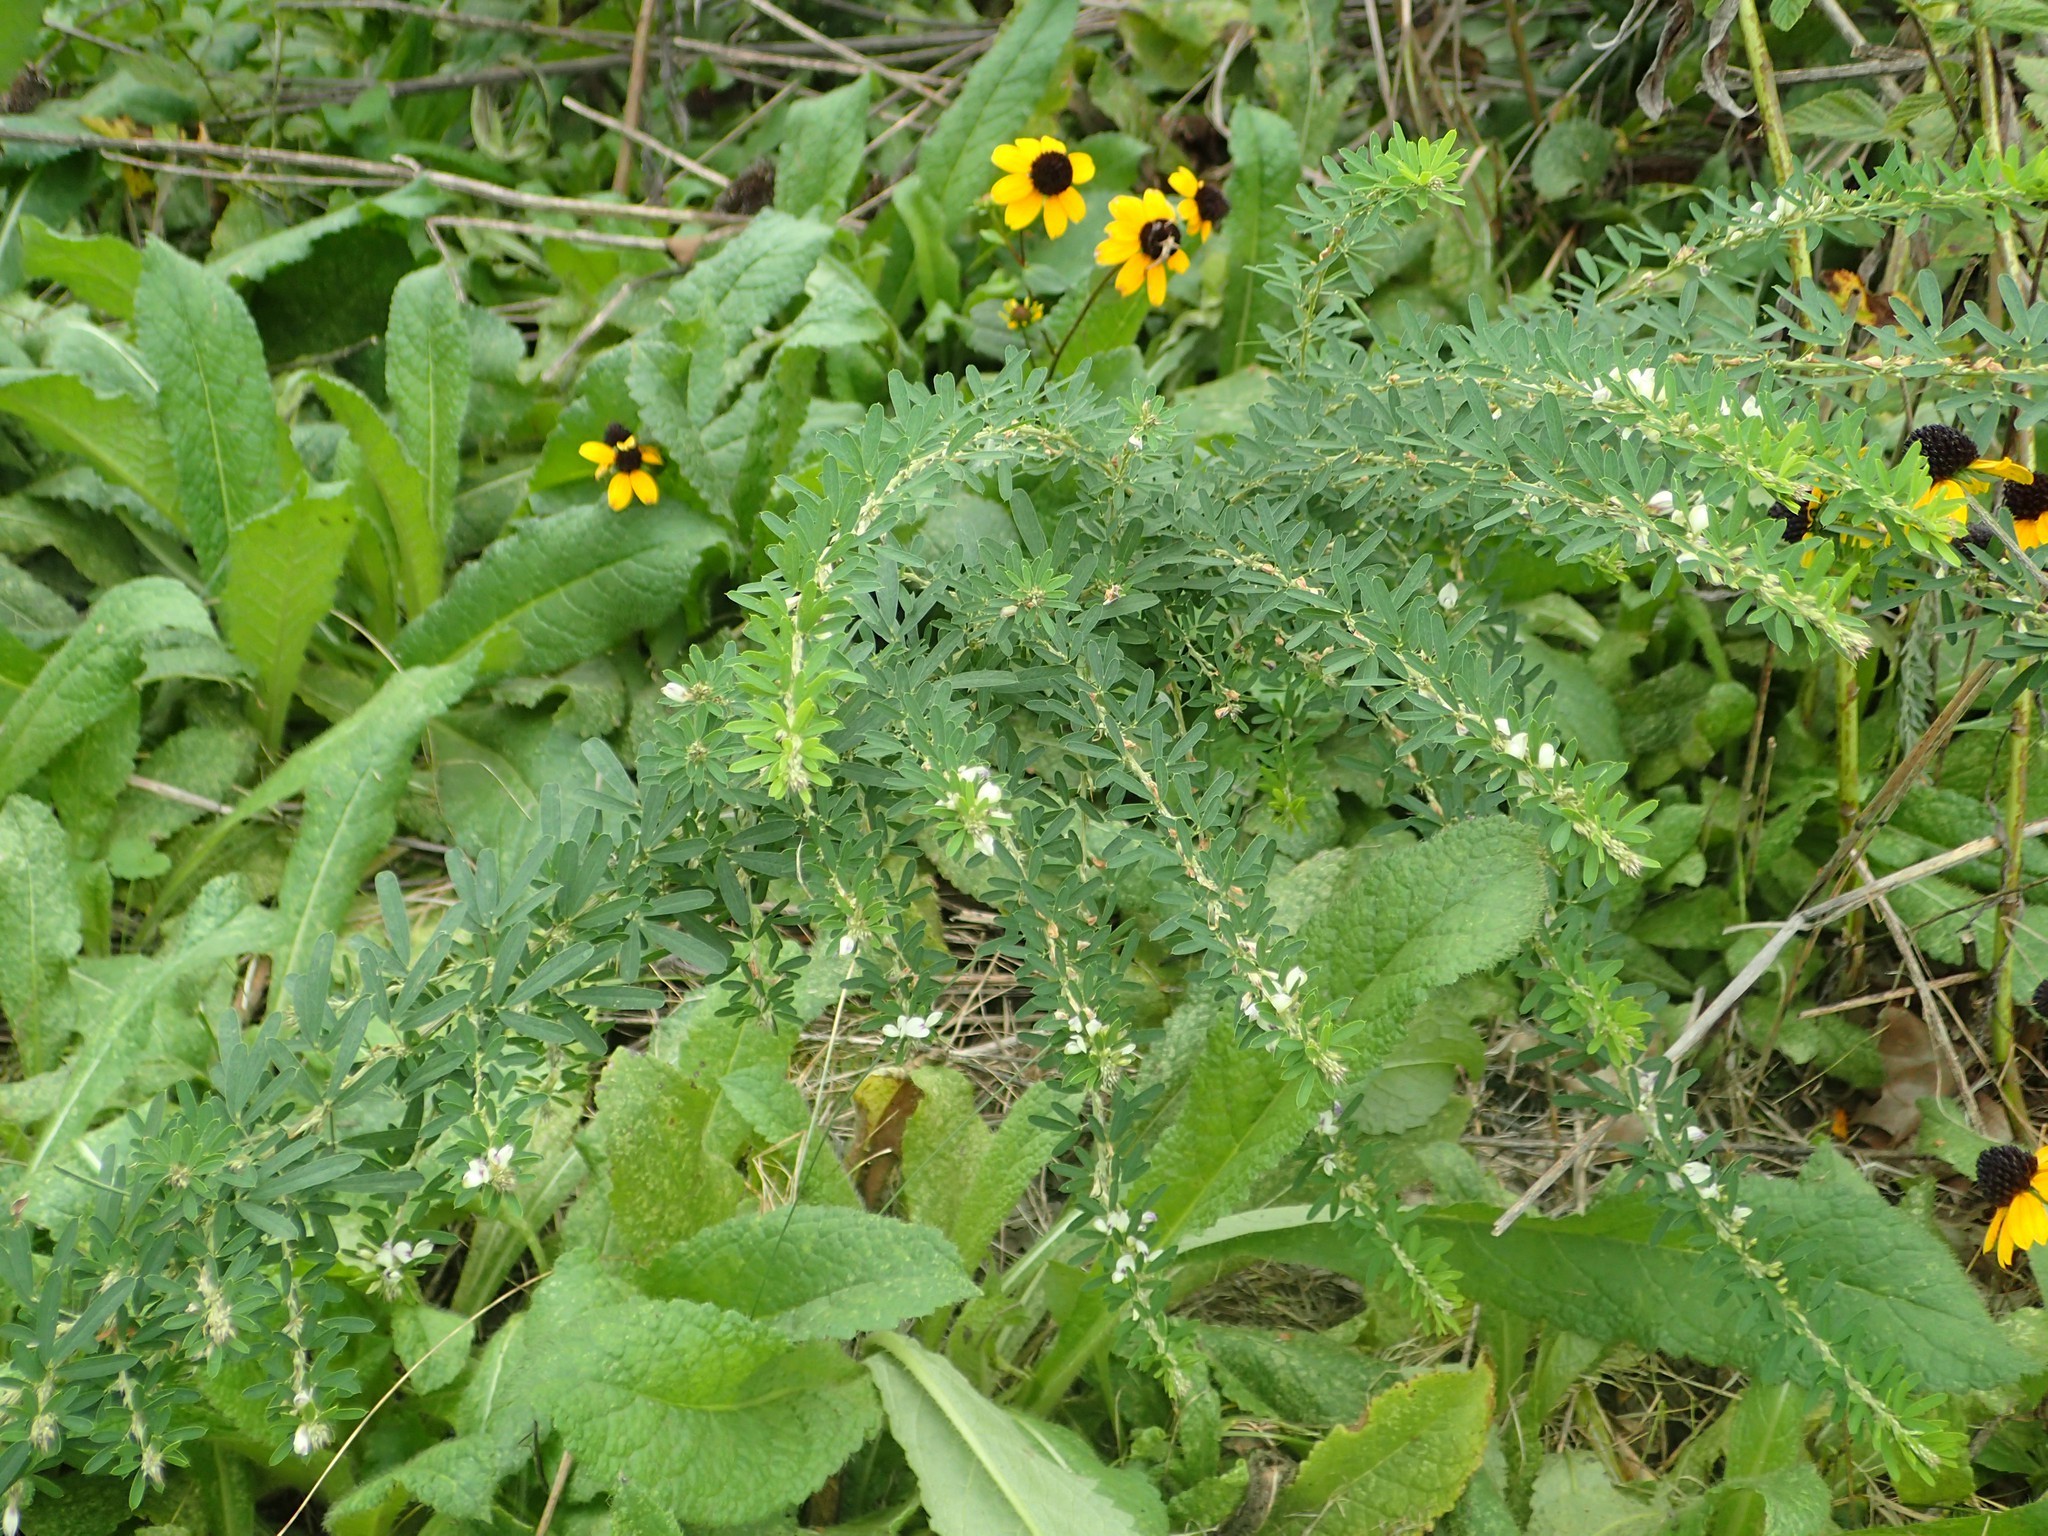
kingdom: Plantae
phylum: Tracheophyta
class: Magnoliopsida
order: Fabales
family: Fabaceae
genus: Lespedeza
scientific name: Lespedeza cuneata
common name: Chinese bush-clover
